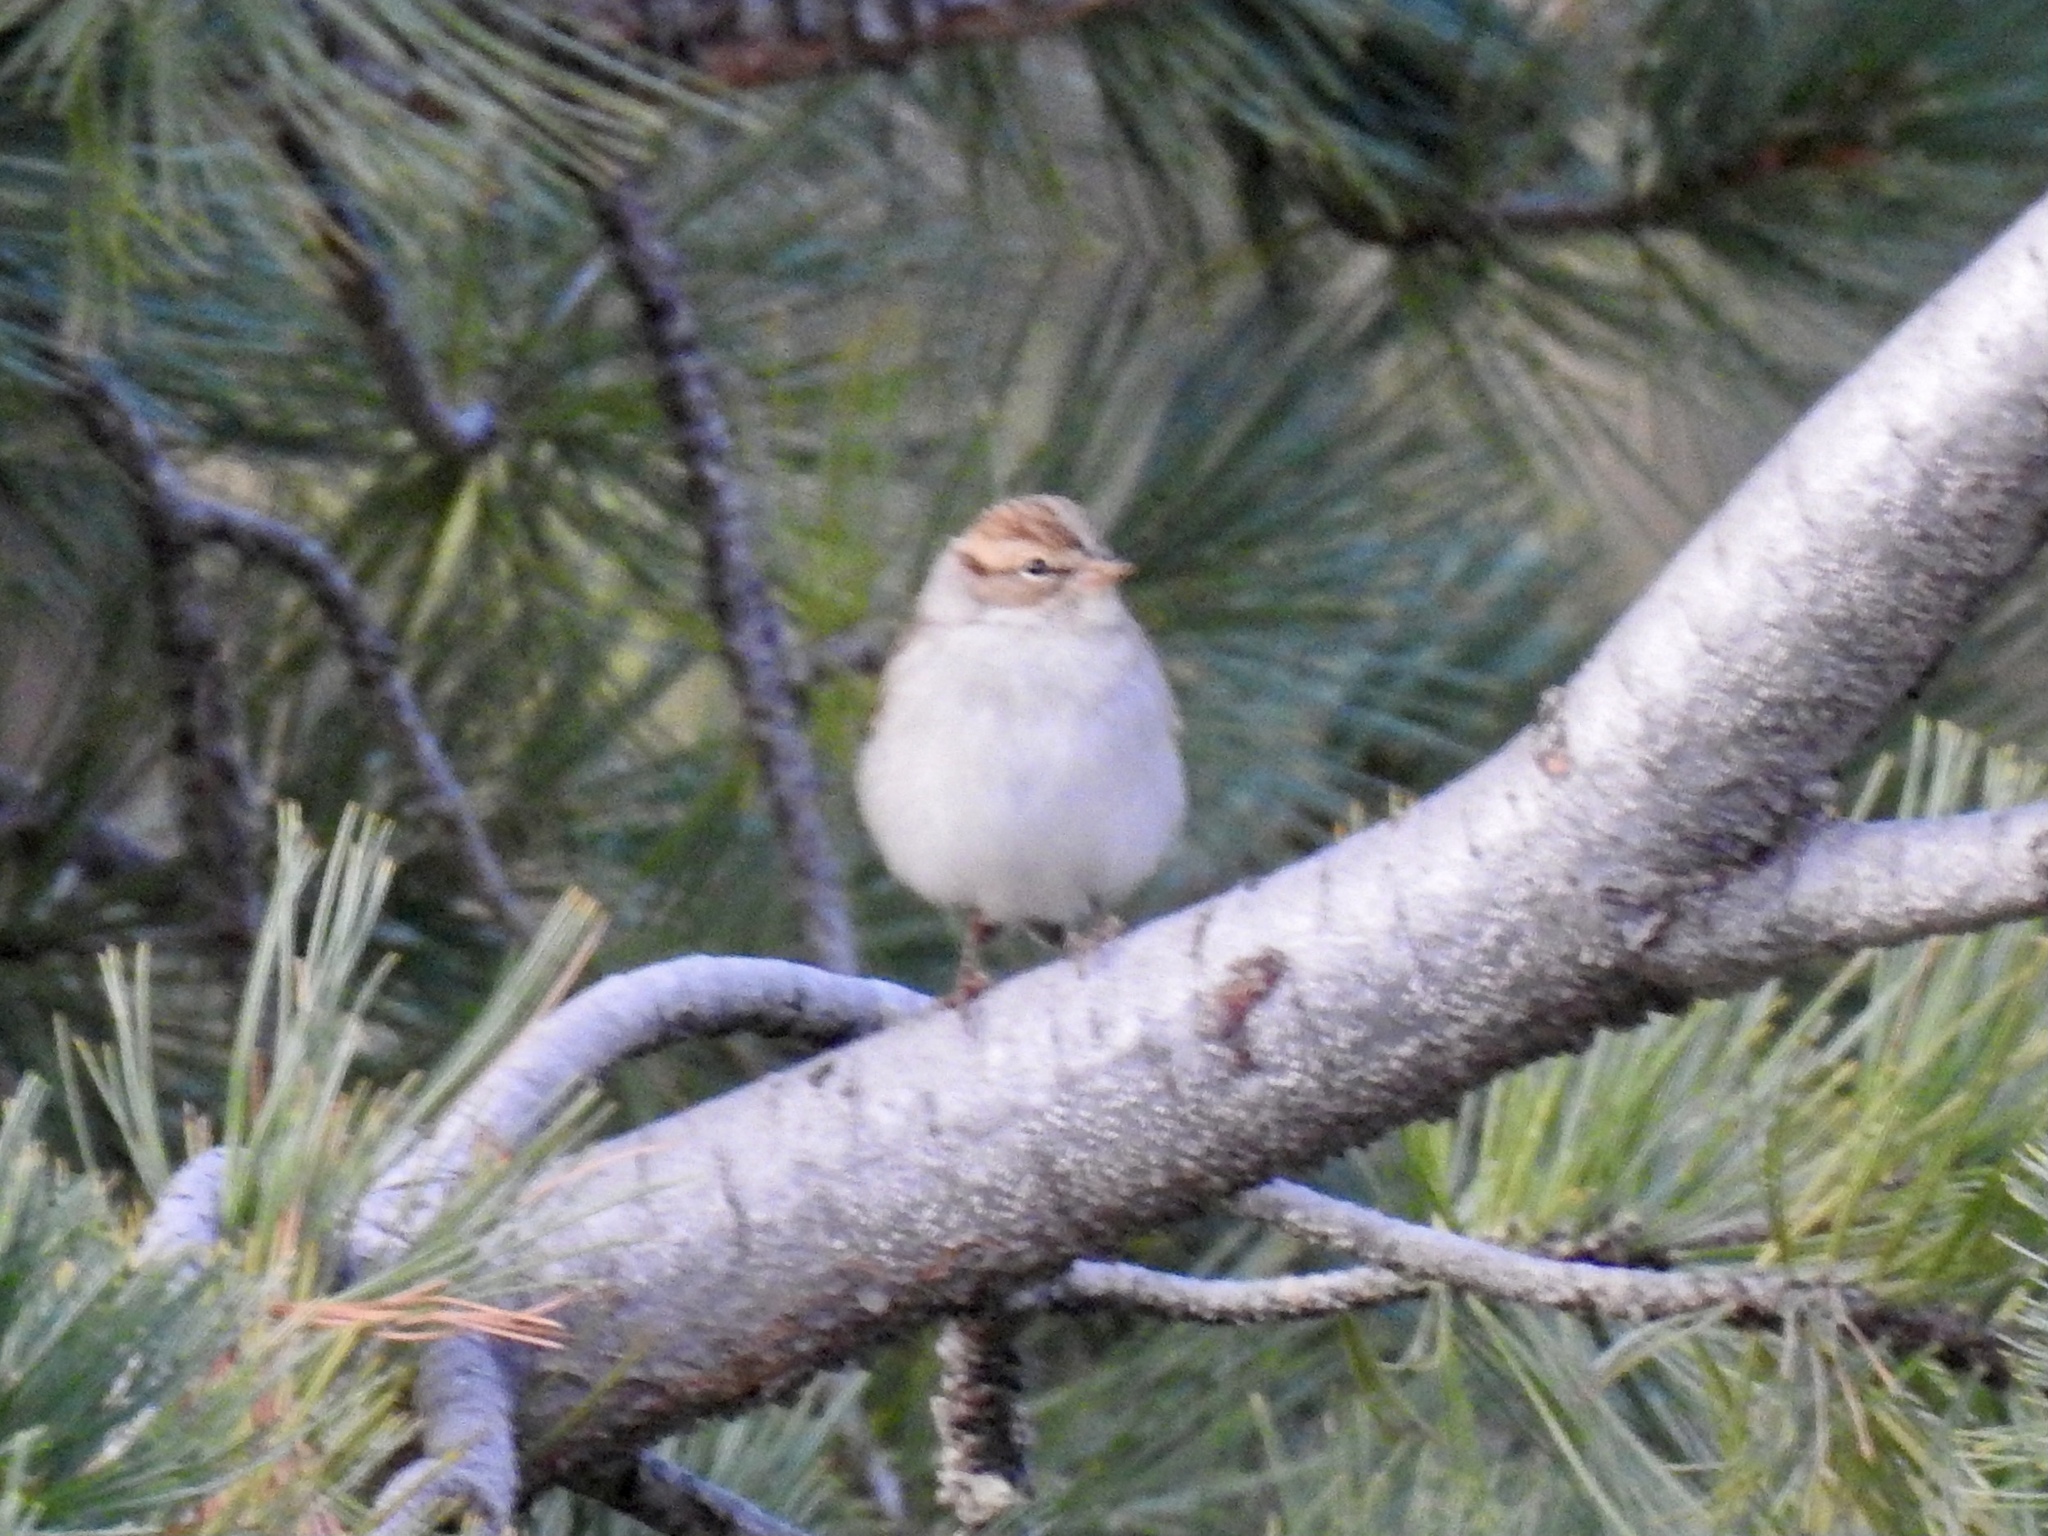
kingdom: Animalia
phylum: Chordata
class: Aves
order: Passeriformes
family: Passerellidae
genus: Spizella
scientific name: Spizella passerina
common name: Chipping sparrow
